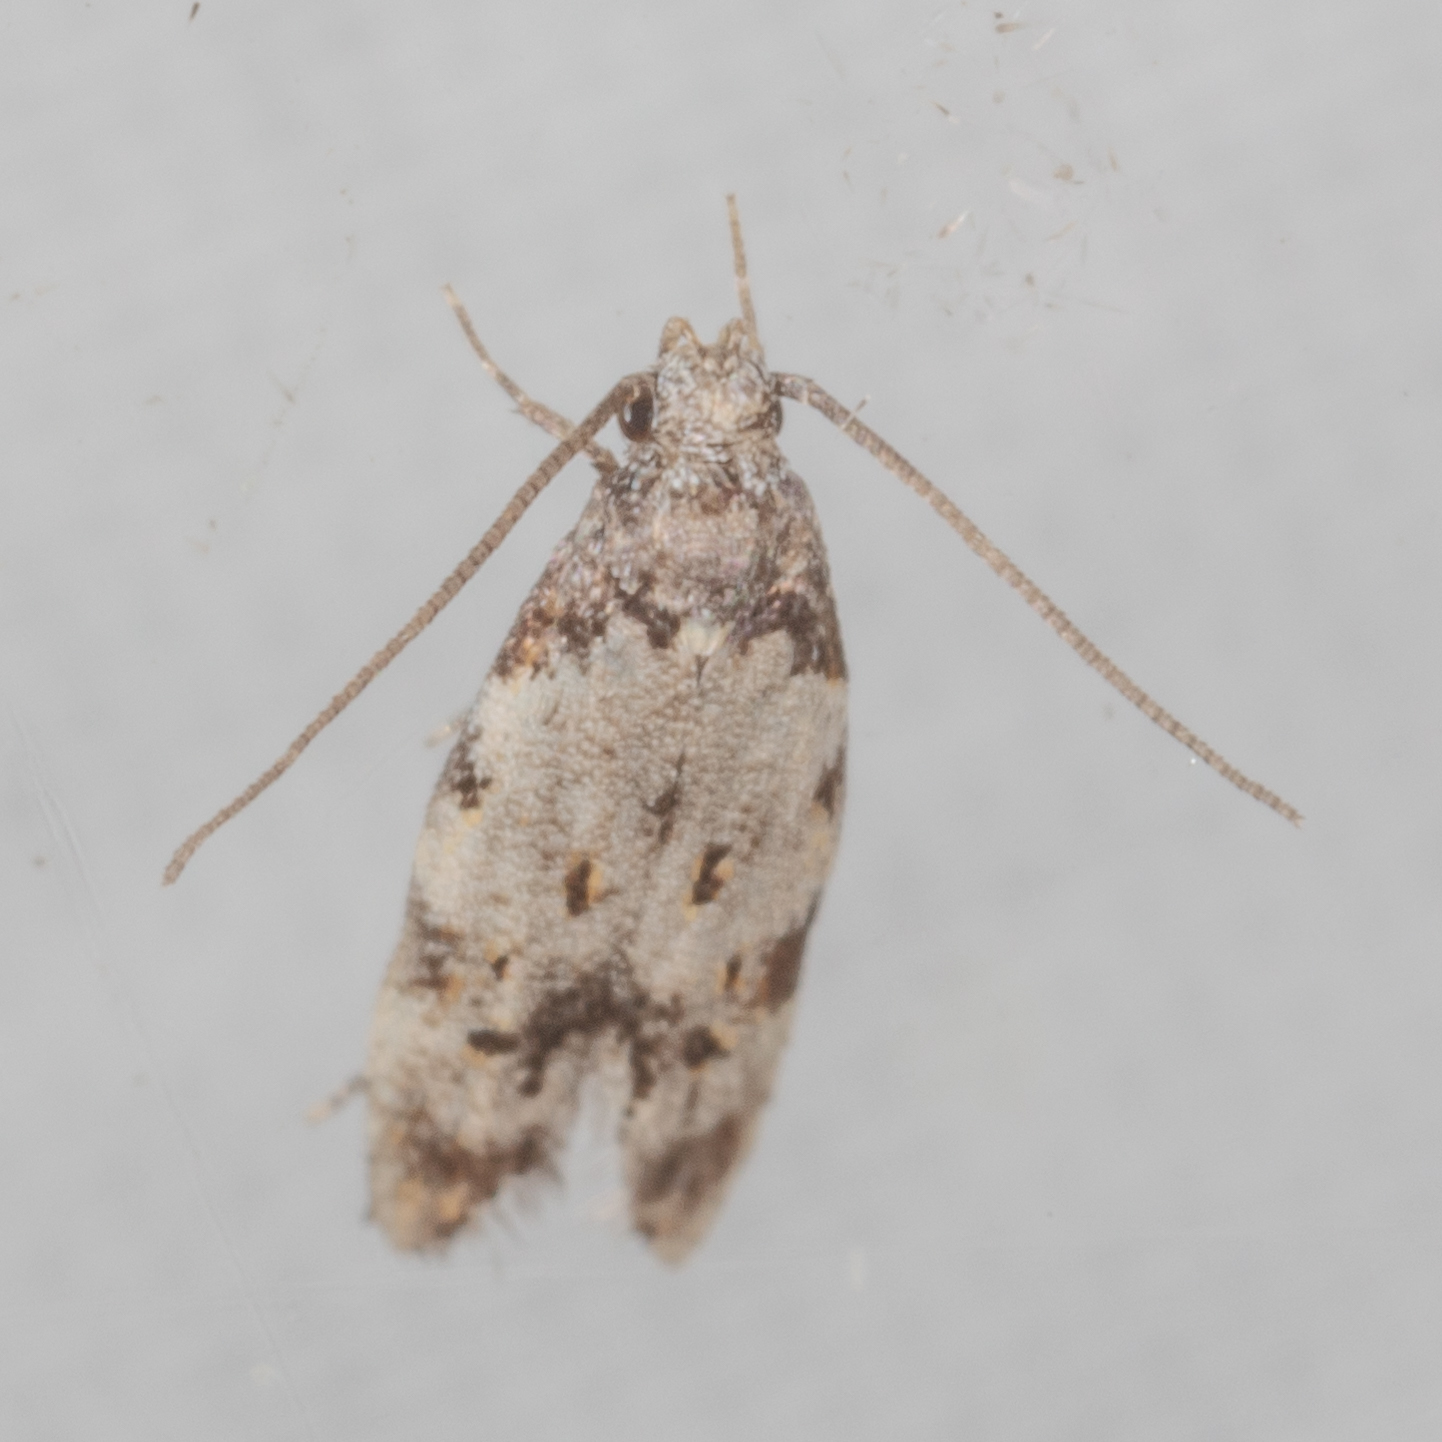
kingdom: Animalia
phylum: Arthropoda
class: Insecta
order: Lepidoptera
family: Autostichidae
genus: Taygete
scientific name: Taygete attributella
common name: Triangle-marked twirler moth
